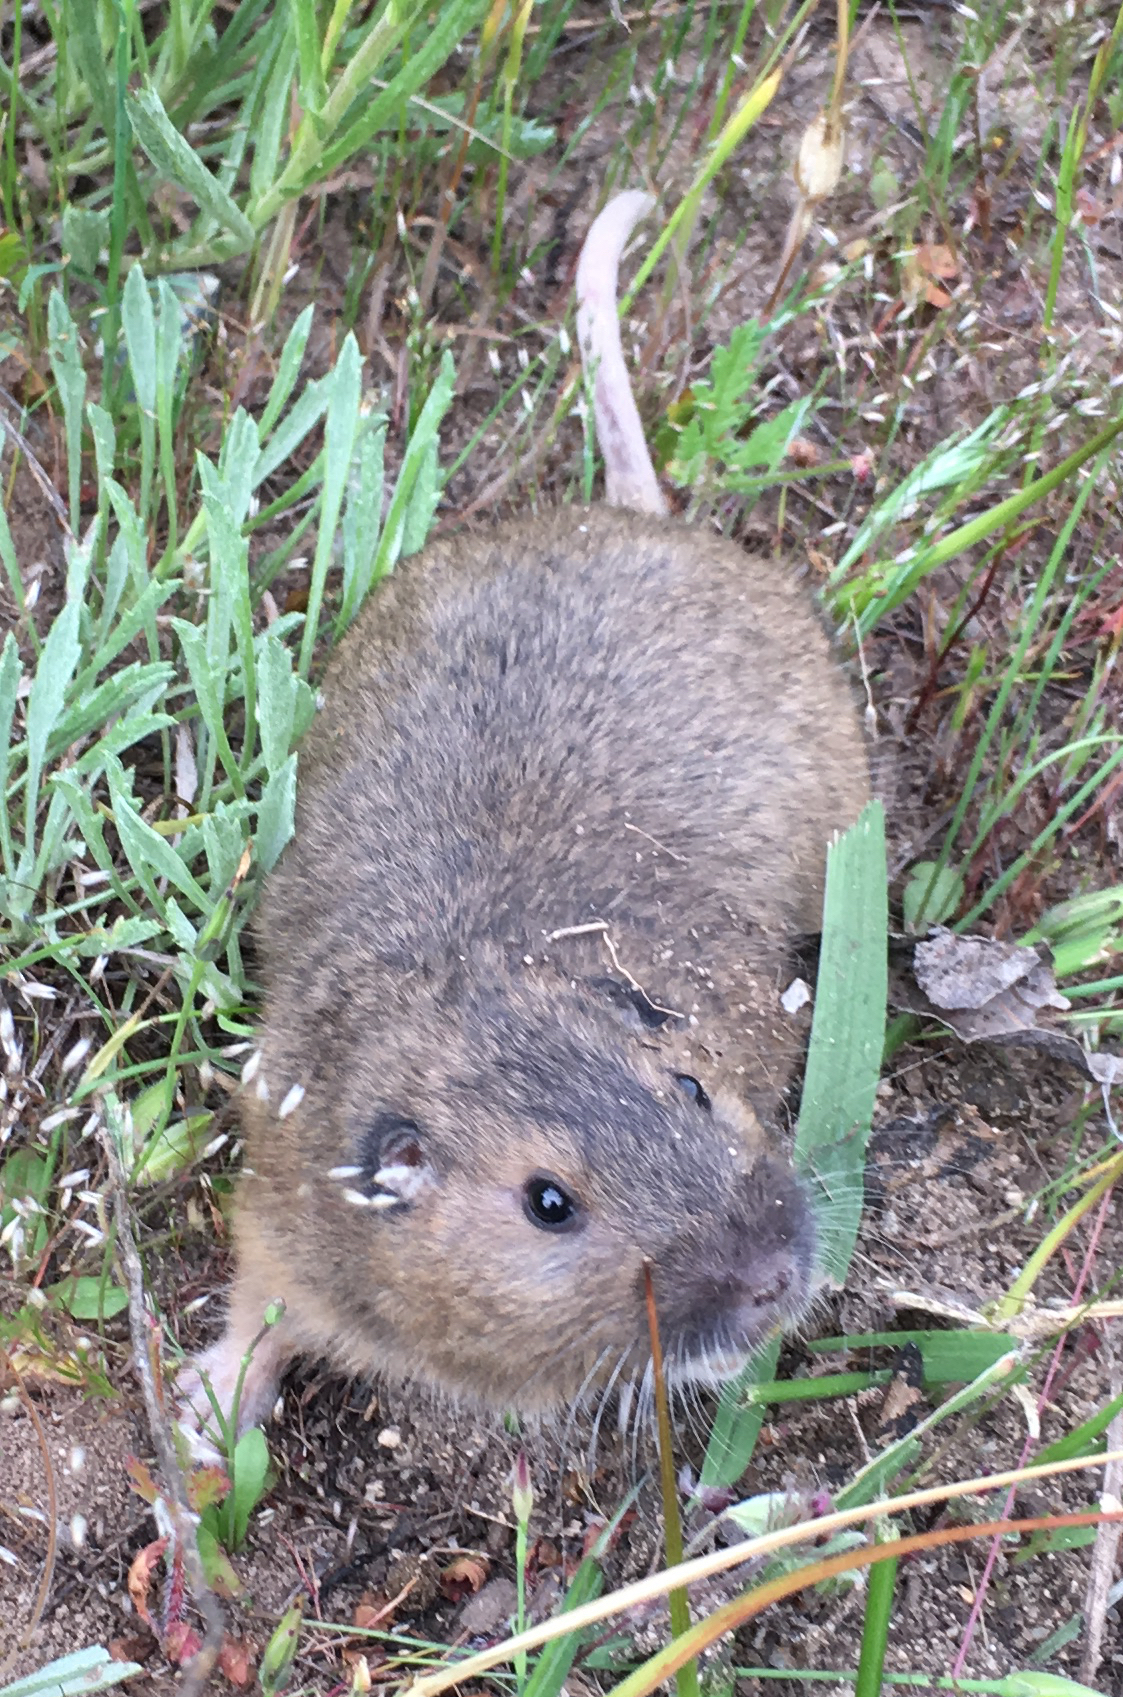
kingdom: Animalia
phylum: Chordata
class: Mammalia
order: Rodentia
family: Geomyidae
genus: Thomomys
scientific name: Thomomys bottae
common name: Botta's pocket gopher
